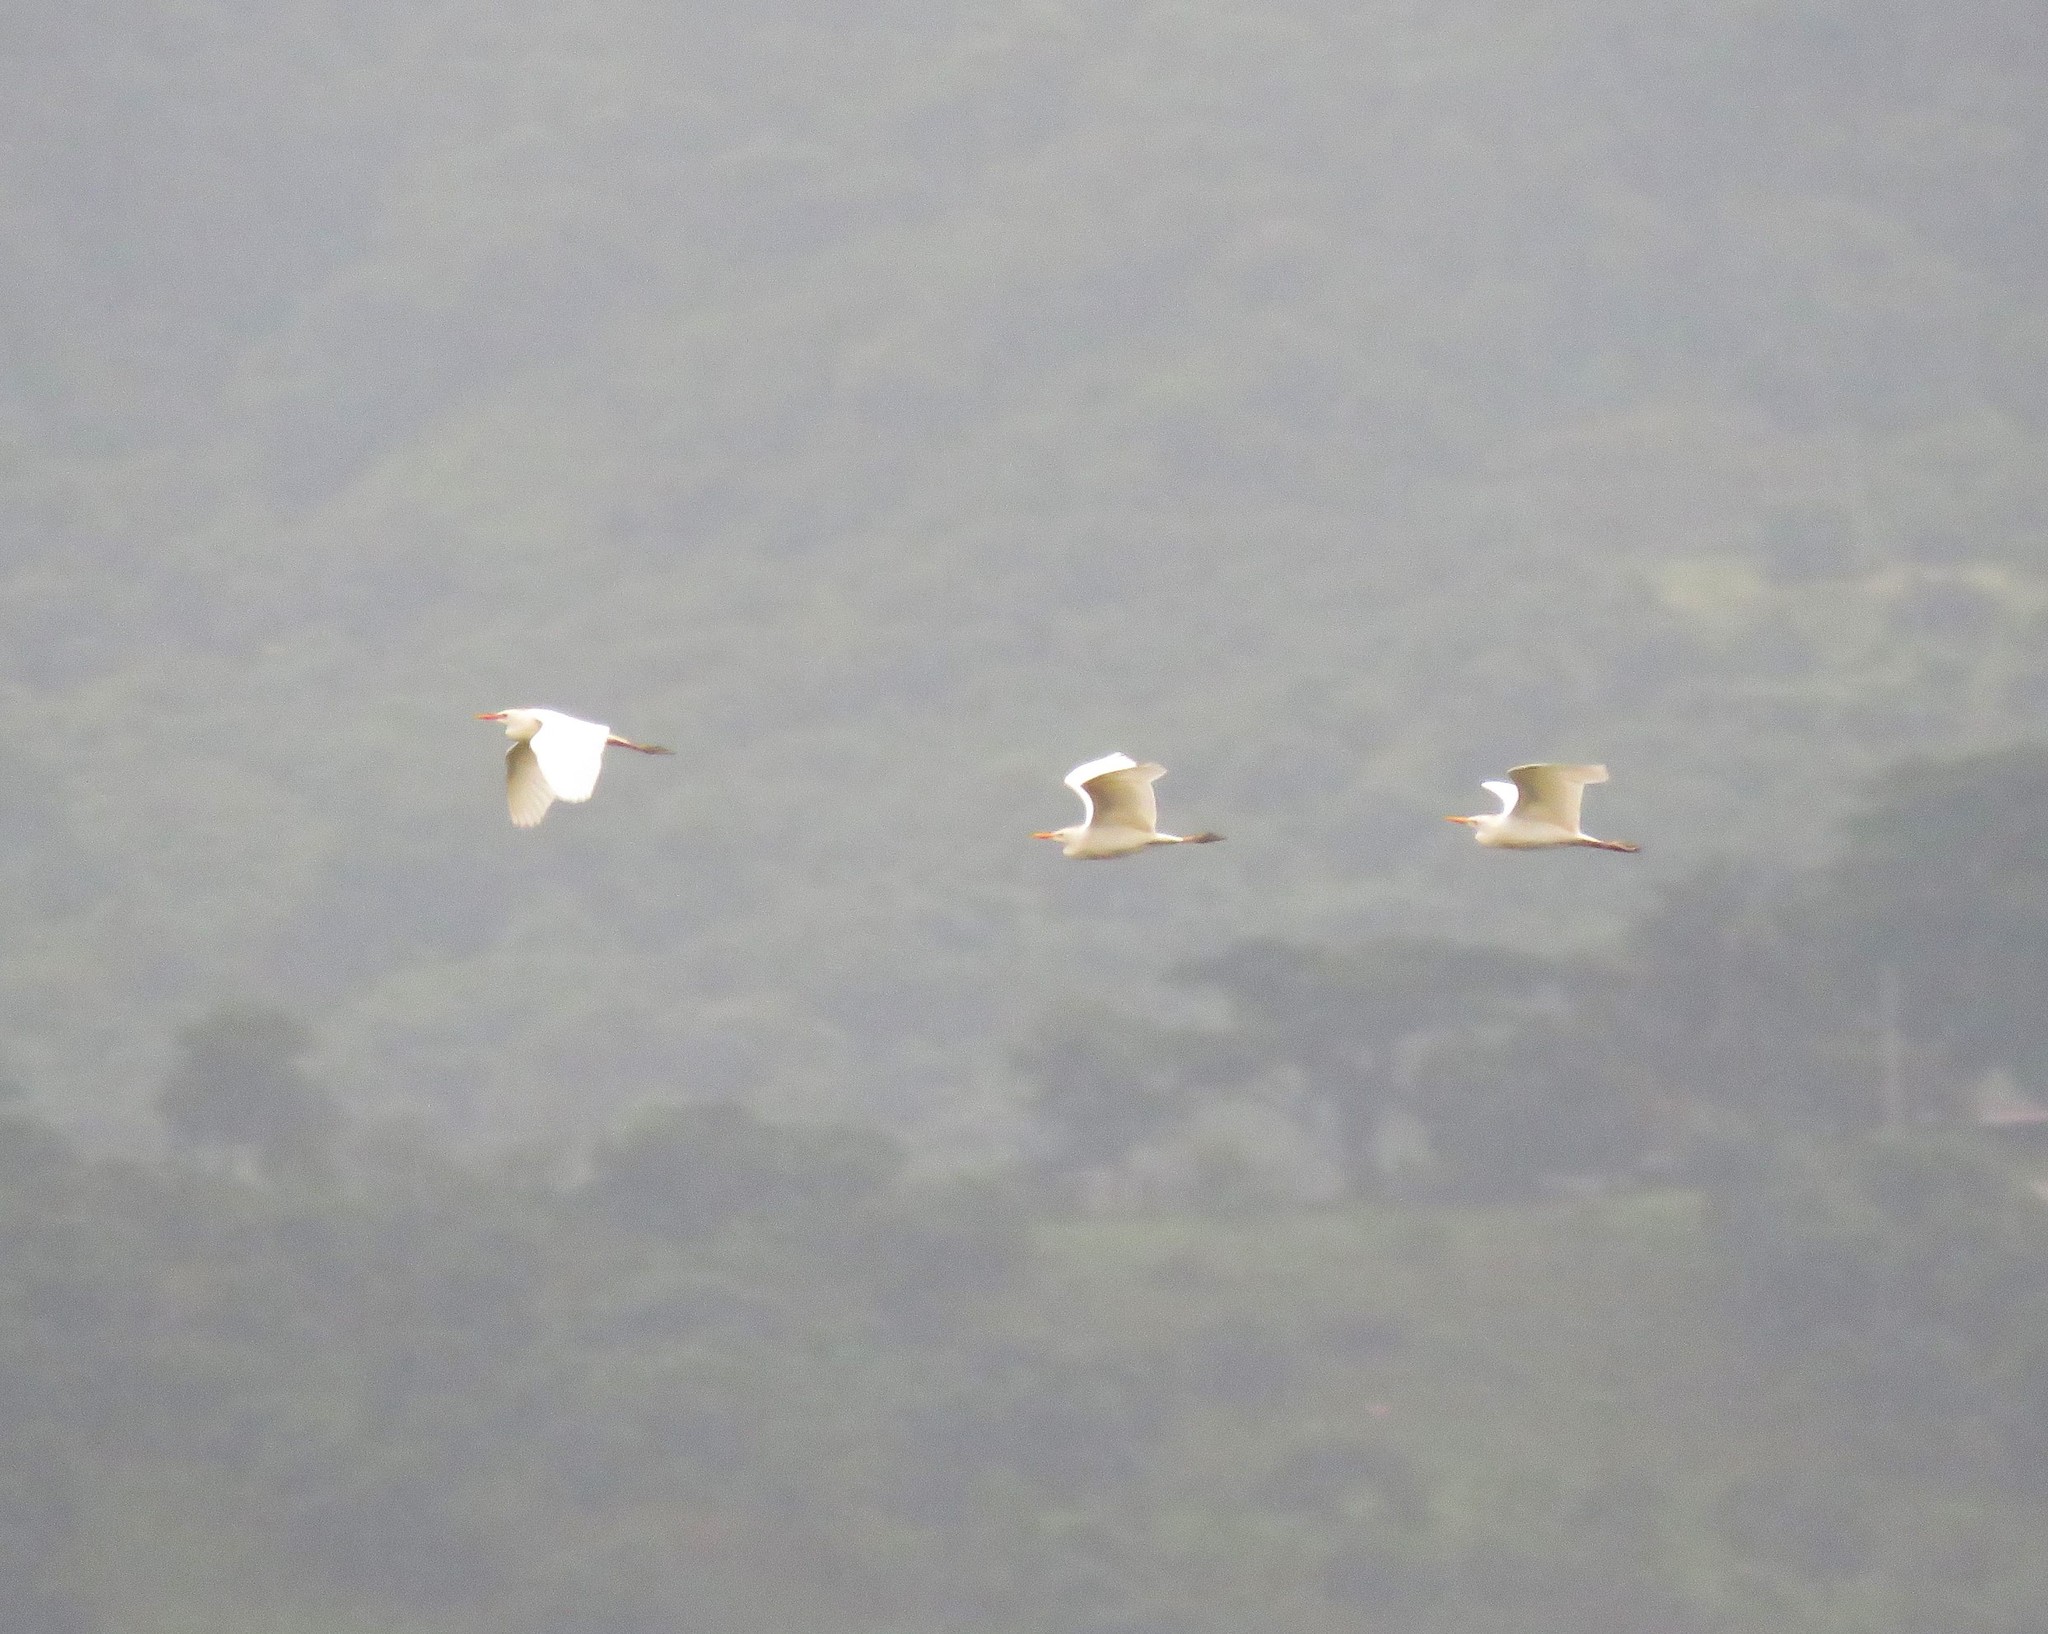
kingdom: Animalia
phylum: Chordata
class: Aves
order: Pelecaniformes
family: Ardeidae
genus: Bubulcus
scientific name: Bubulcus ibis
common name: Cattle egret
